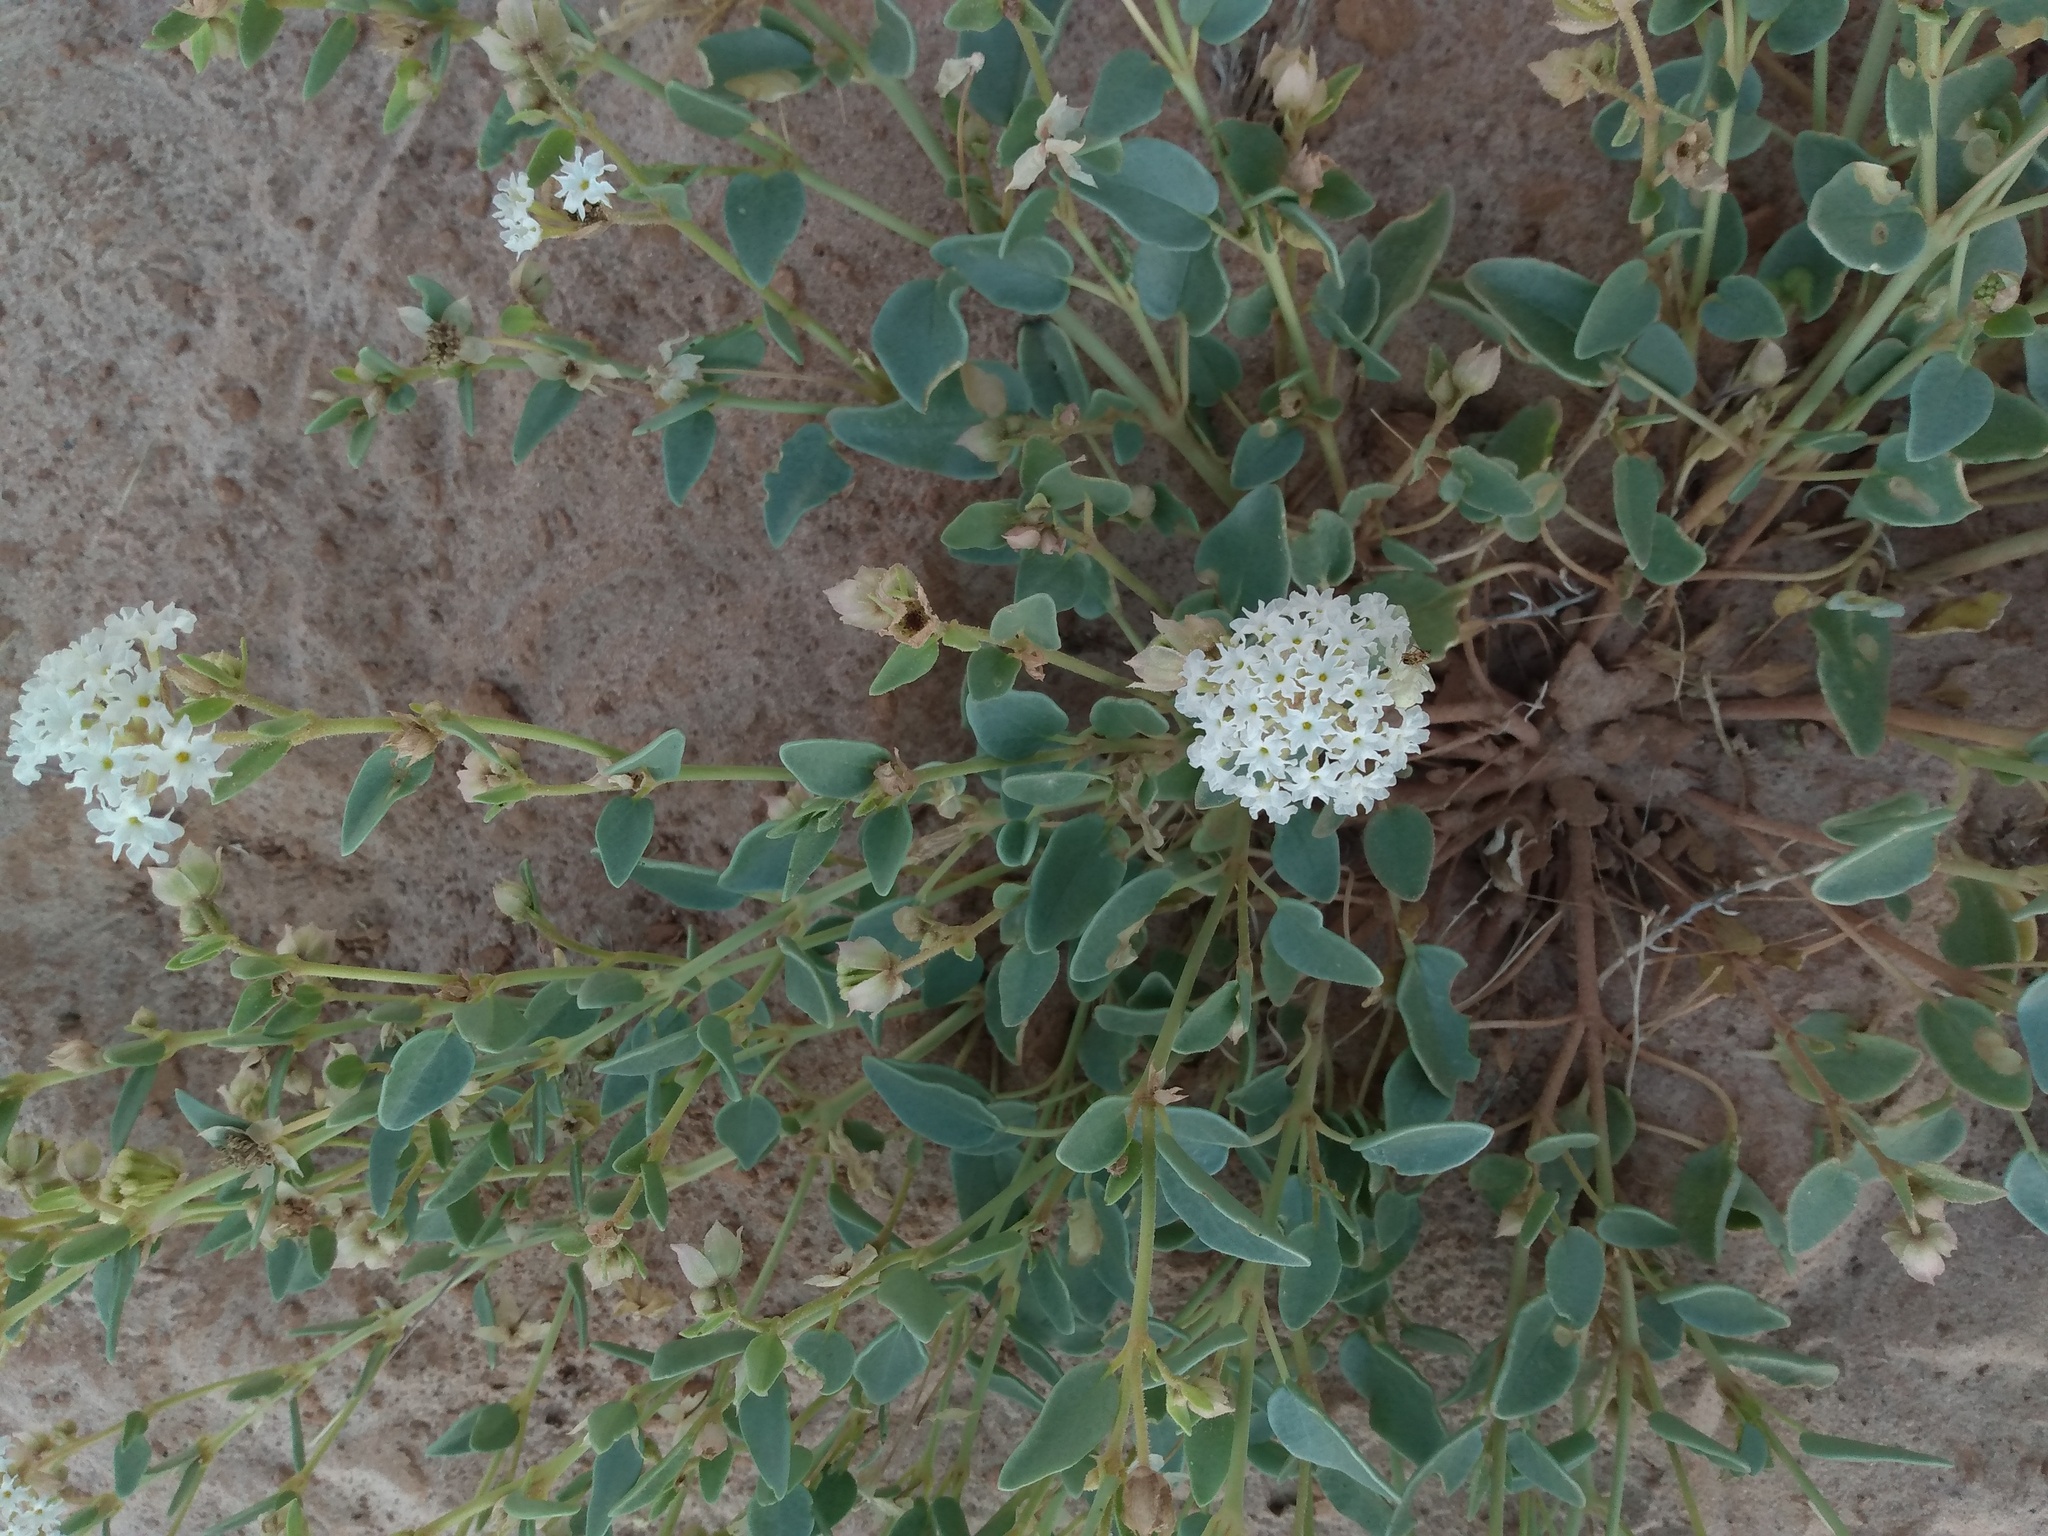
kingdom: Plantae
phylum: Tracheophyta
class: Magnoliopsida
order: Caryophyllales
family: Nyctaginaceae
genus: Abronia
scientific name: Abronia elliptica
